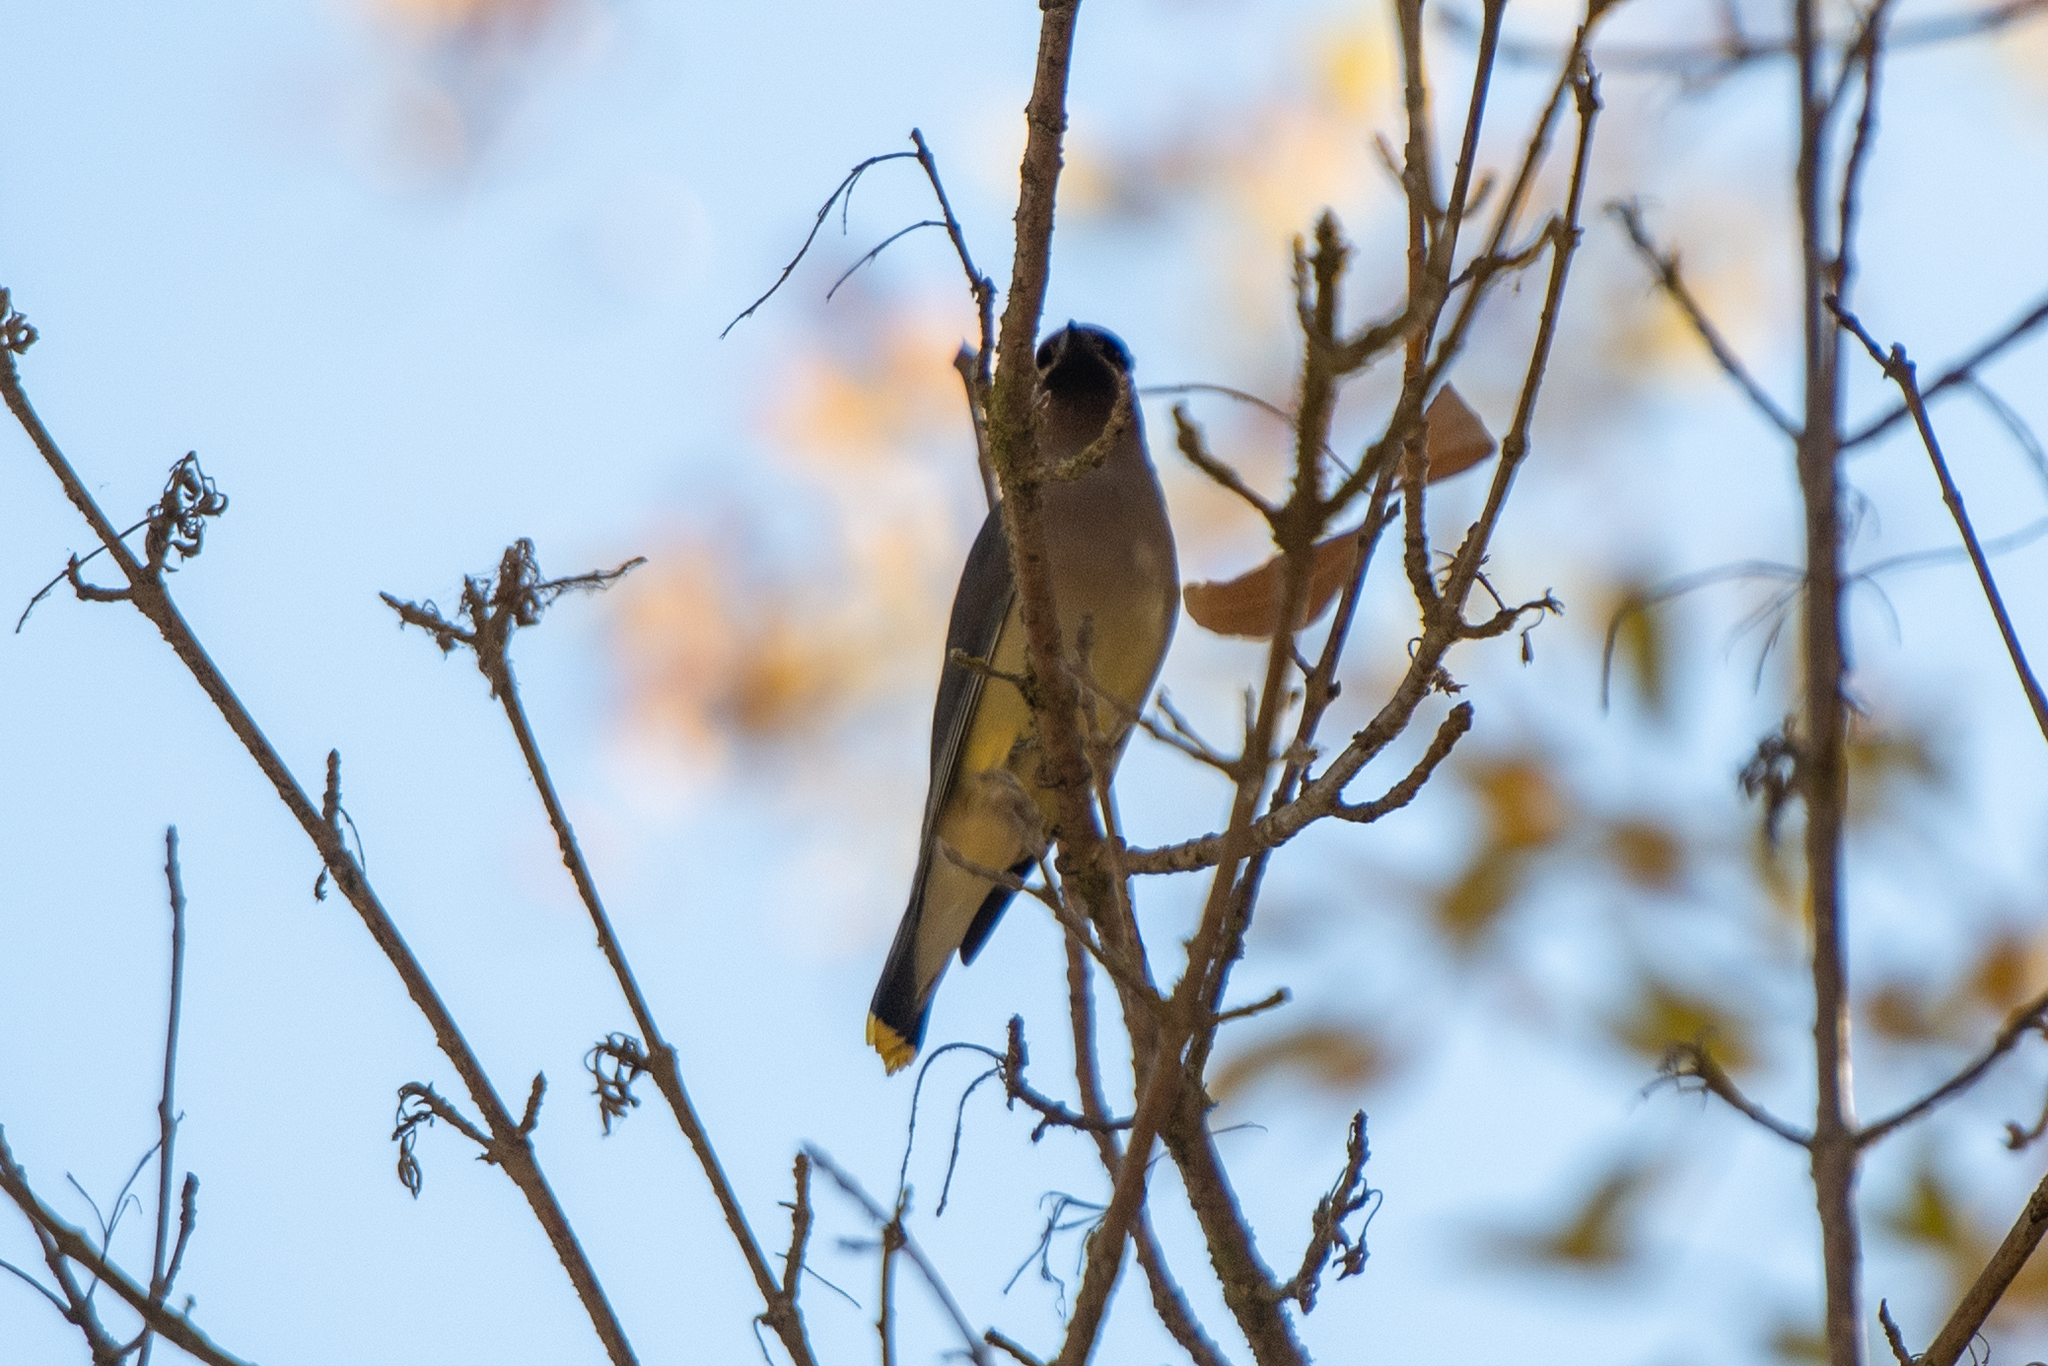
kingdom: Animalia
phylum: Chordata
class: Aves
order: Passeriformes
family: Bombycillidae
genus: Bombycilla
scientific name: Bombycilla cedrorum
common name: Cedar waxwing
